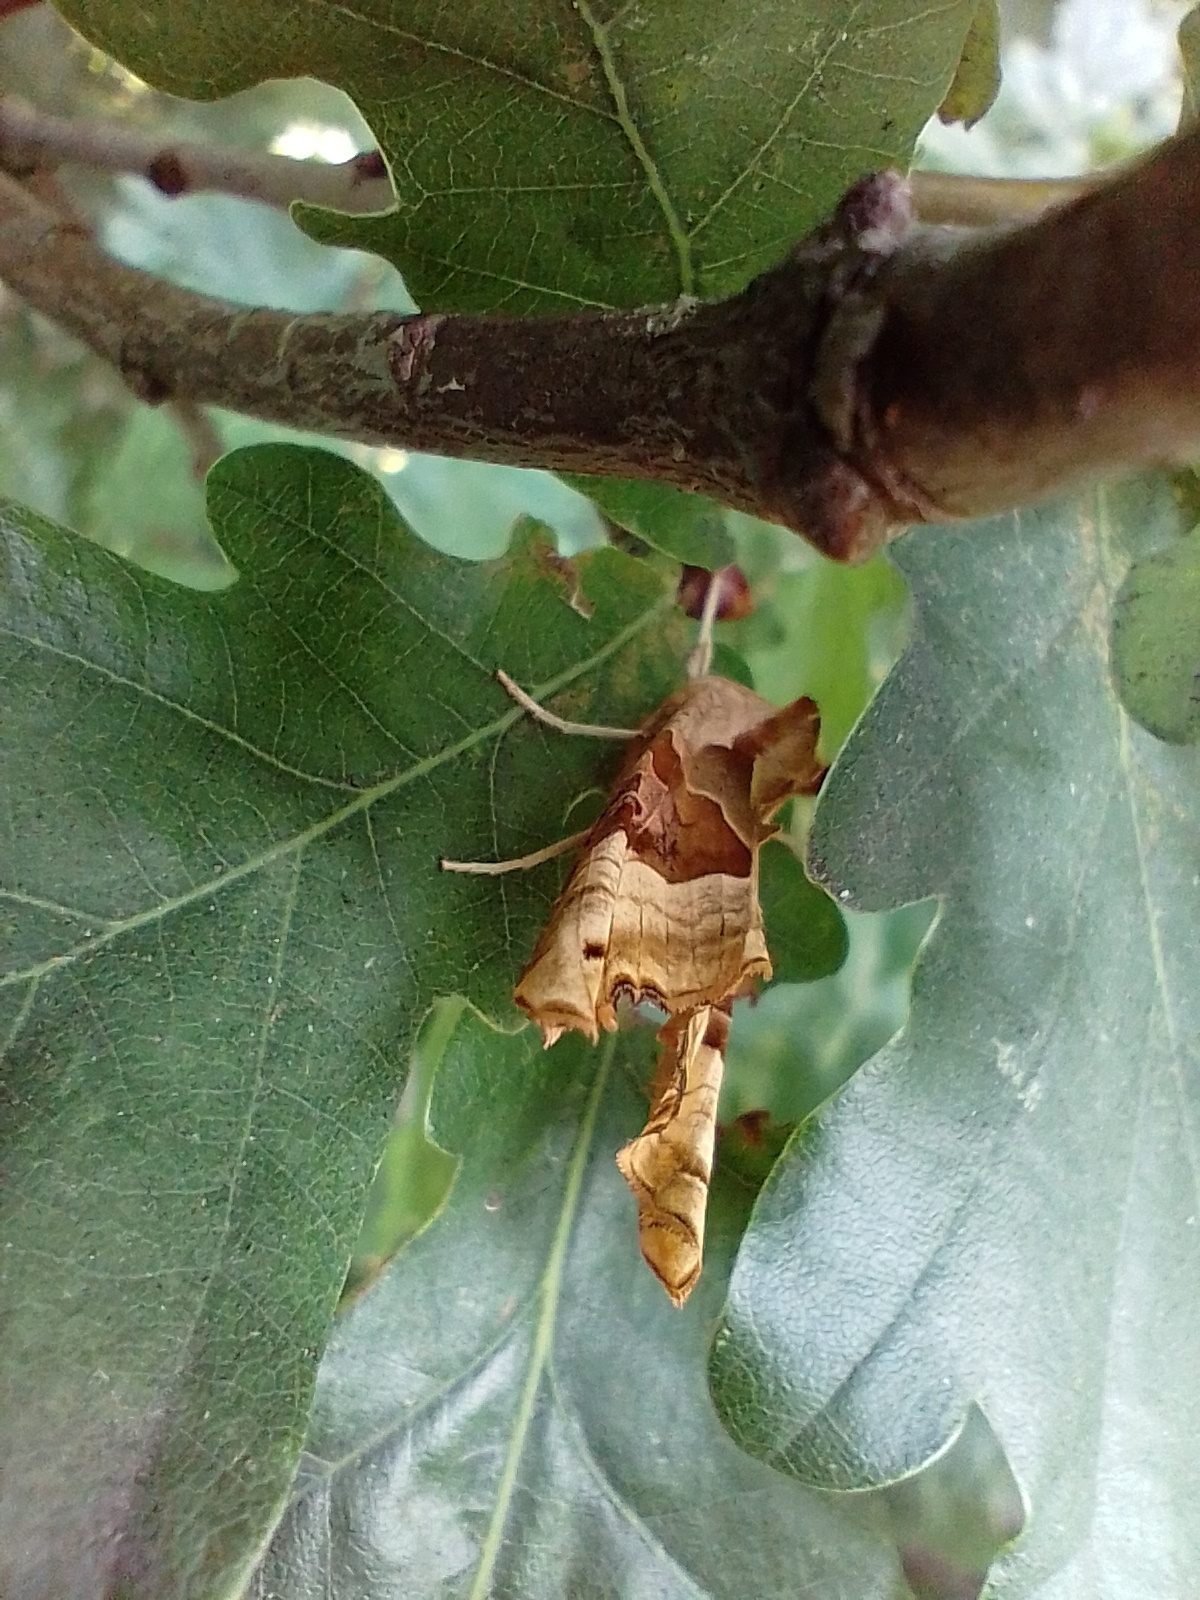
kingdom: Animalia
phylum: Arthropoda
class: Insecta
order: Lepidoptera
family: Noctuidae
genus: Phlogophora
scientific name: Phlogophora meticulosa
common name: Angle shades
